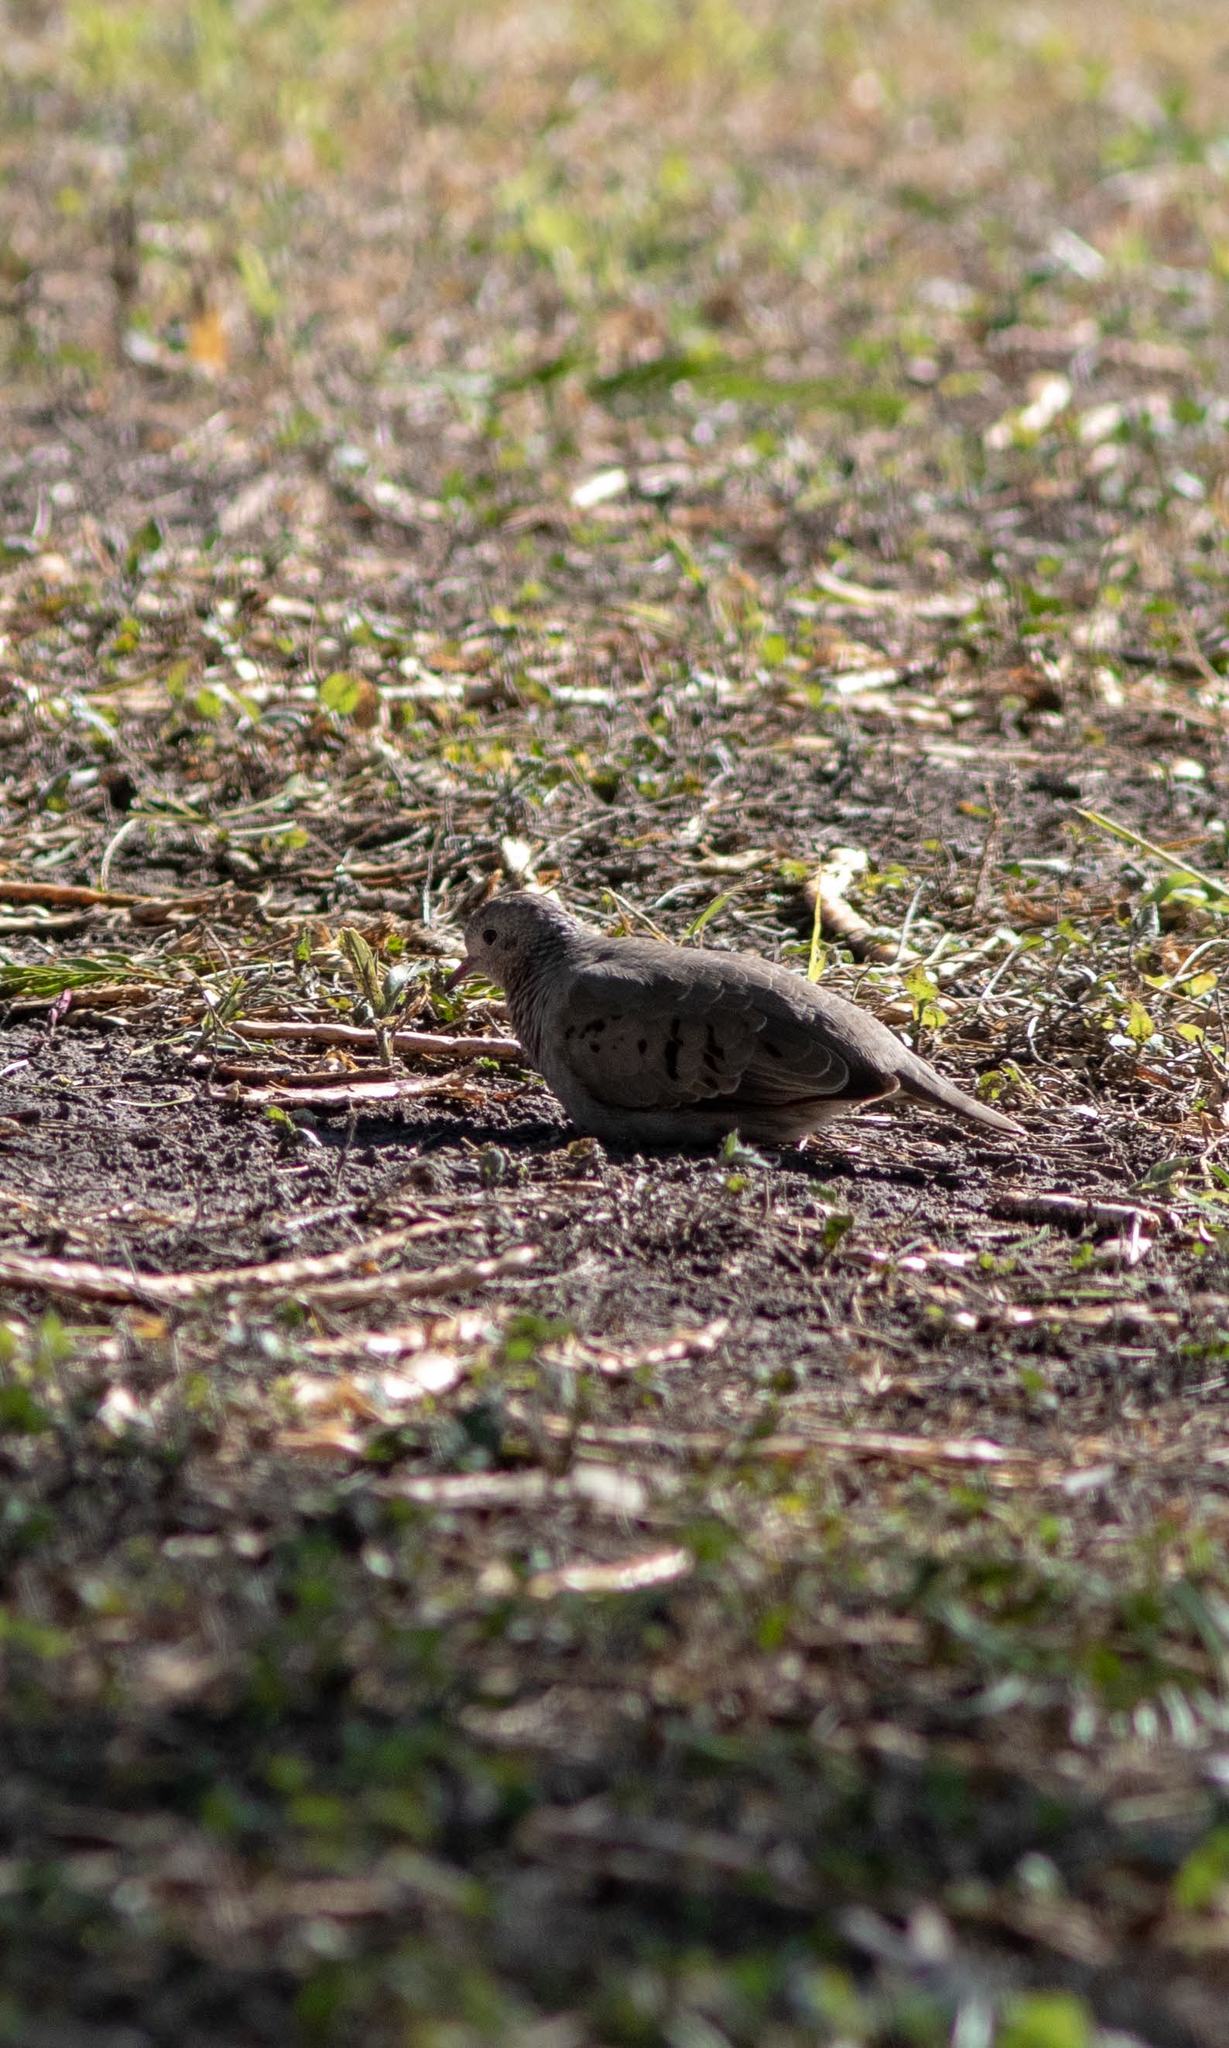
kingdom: Animalia
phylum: Chordata
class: Aves
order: Columbiformes
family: Columbidae
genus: Columbina
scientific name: Columbina passerina
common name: Common ground-dove
